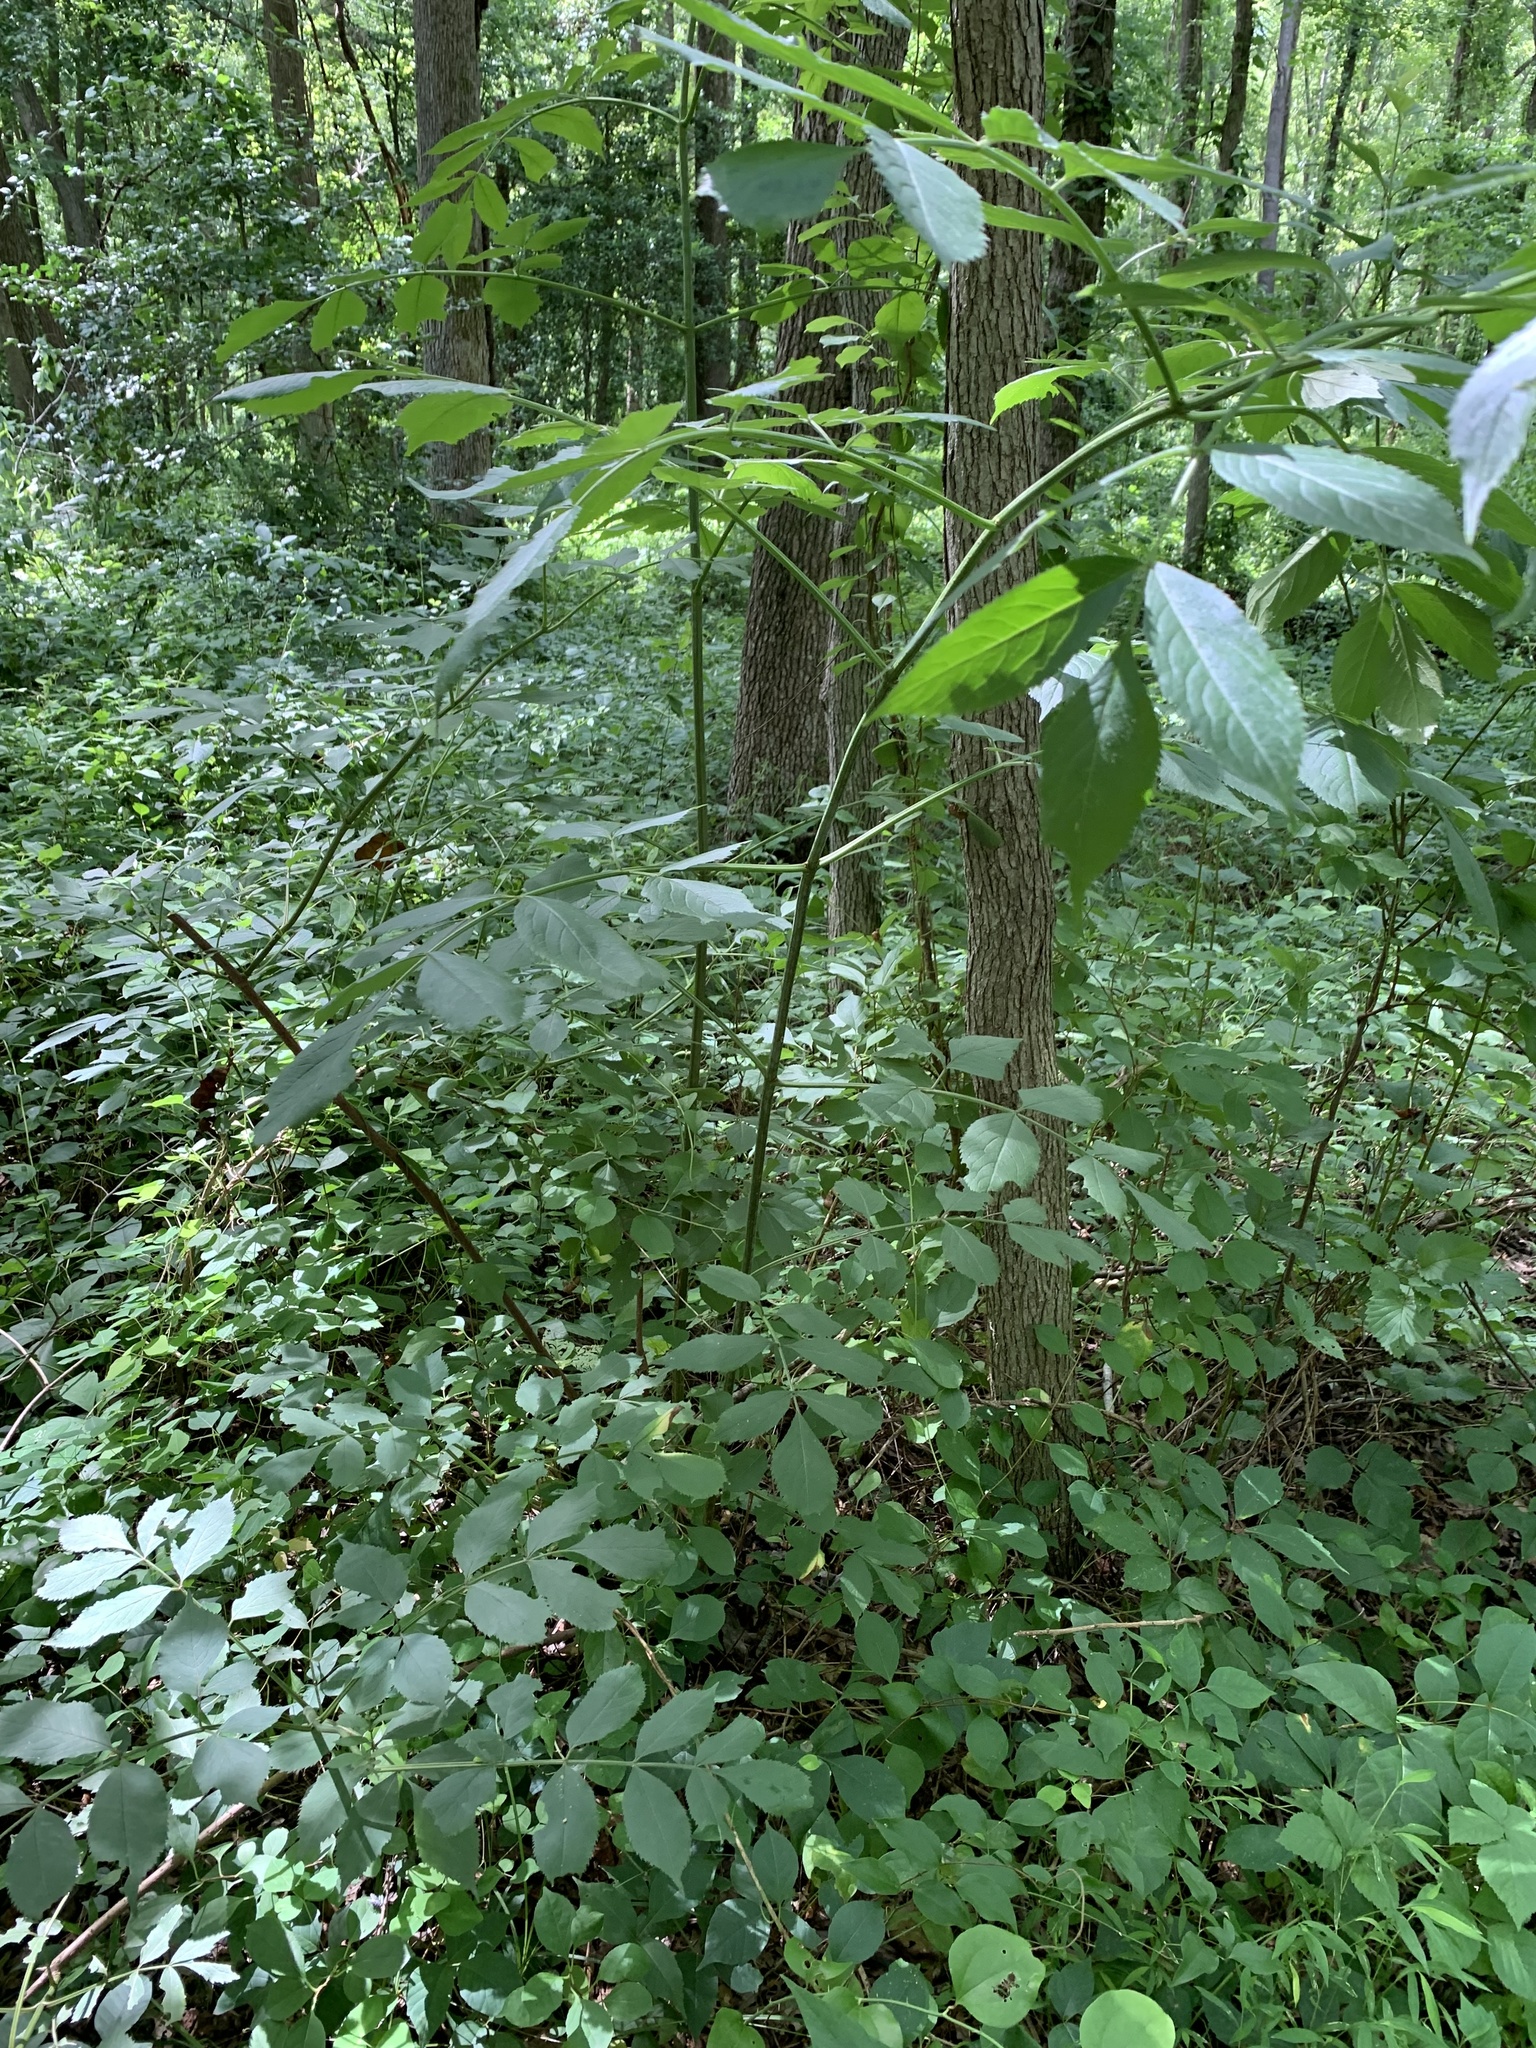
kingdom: Plantae
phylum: Tracheophyta
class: Magnoliopsida
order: Dipsacales
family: Viburnaceae
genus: Sambucus
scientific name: Sambucus canadensis
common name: American elder
